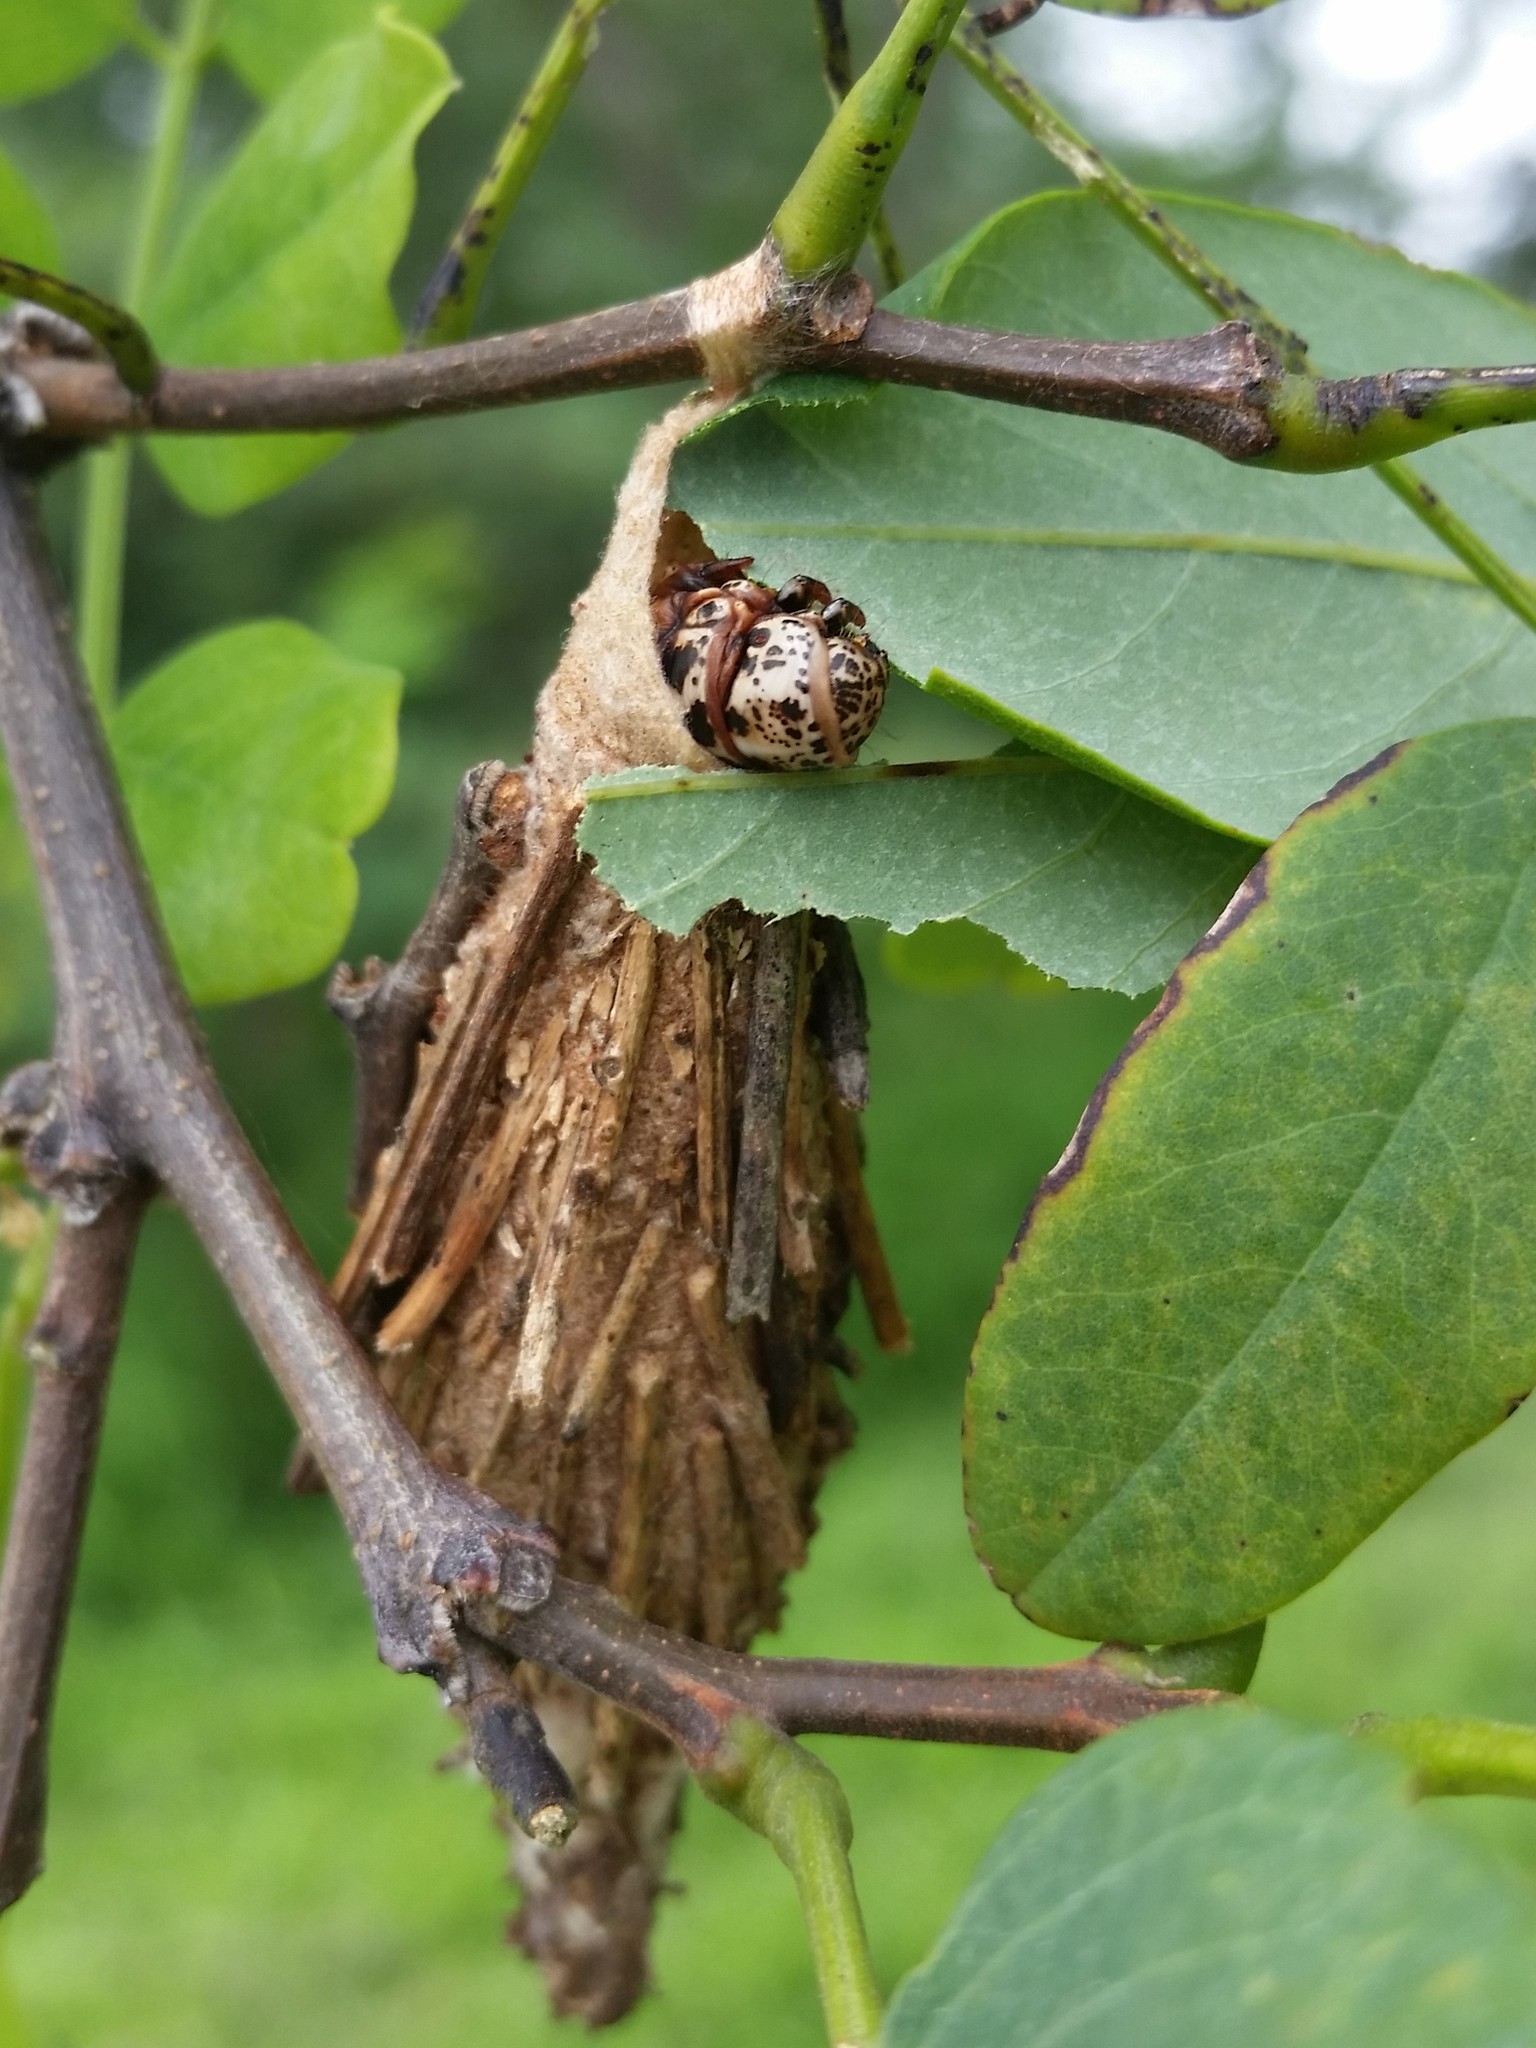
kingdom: Animalia
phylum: Arthropoda
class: Insecta
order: Lepidoptera
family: Psychidae
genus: Thyridopteryx
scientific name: Thyridopteryx ephemeraeformis
